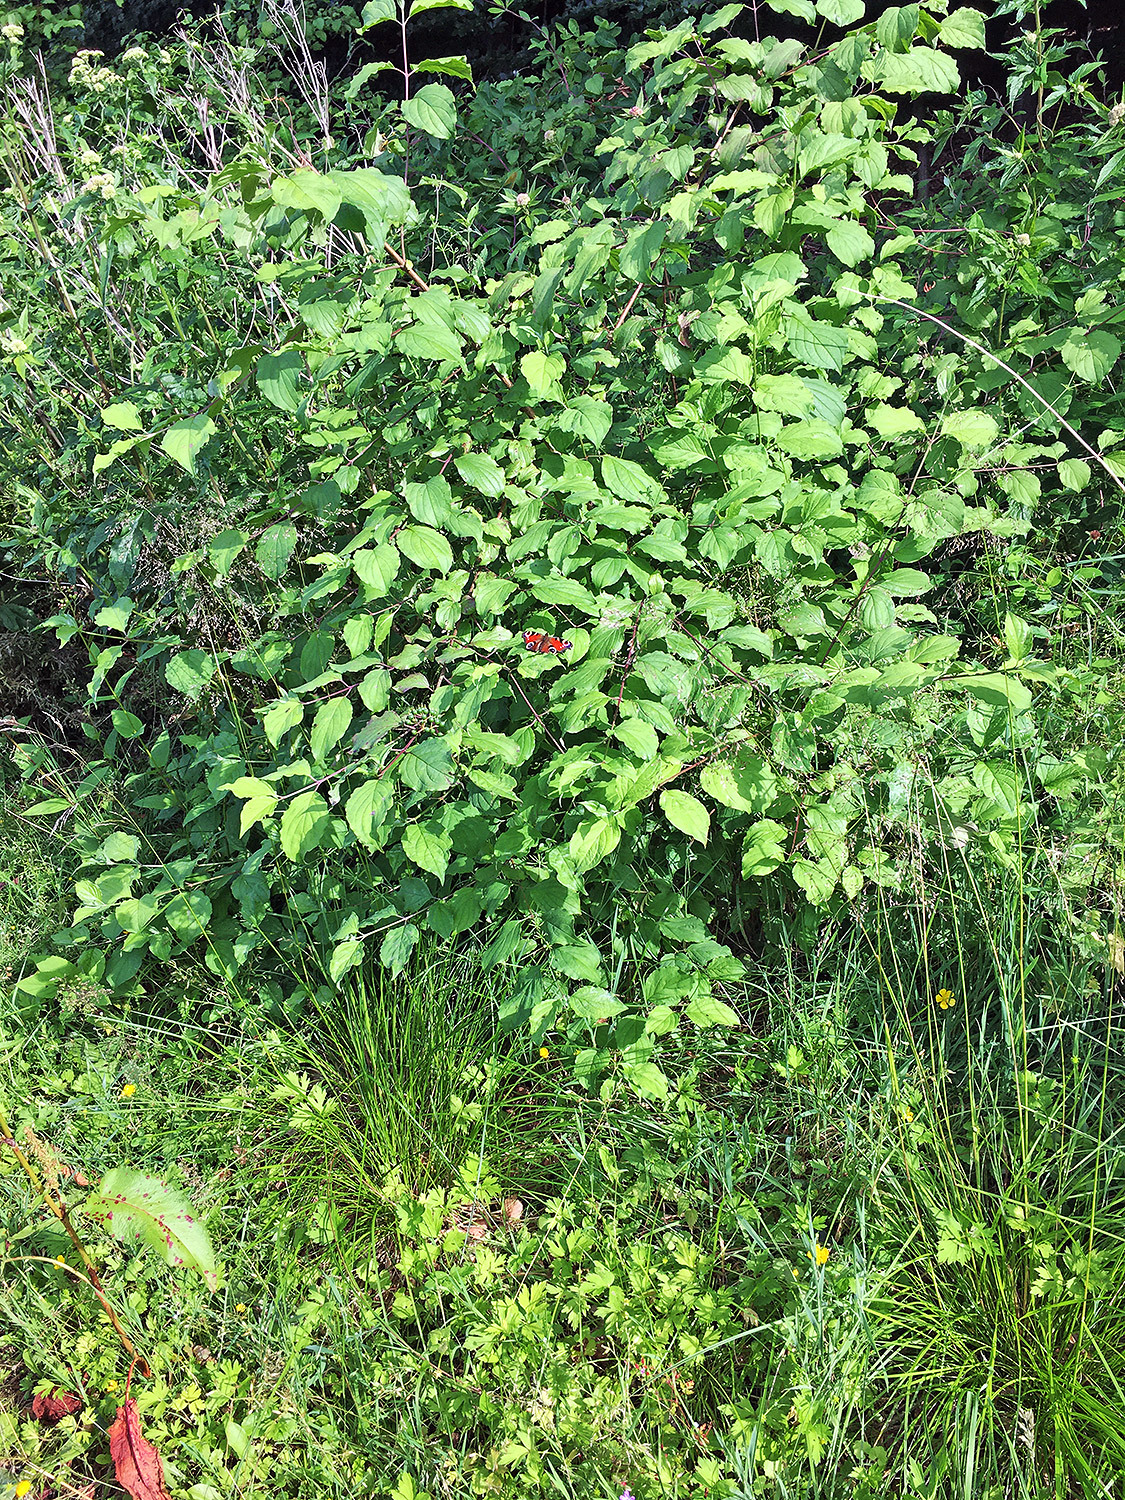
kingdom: Animalia
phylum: Arthropoda
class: Insecta
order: Lepidoptera
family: Nymphalidae
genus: Aglais
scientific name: Aglais io
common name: Peacock
